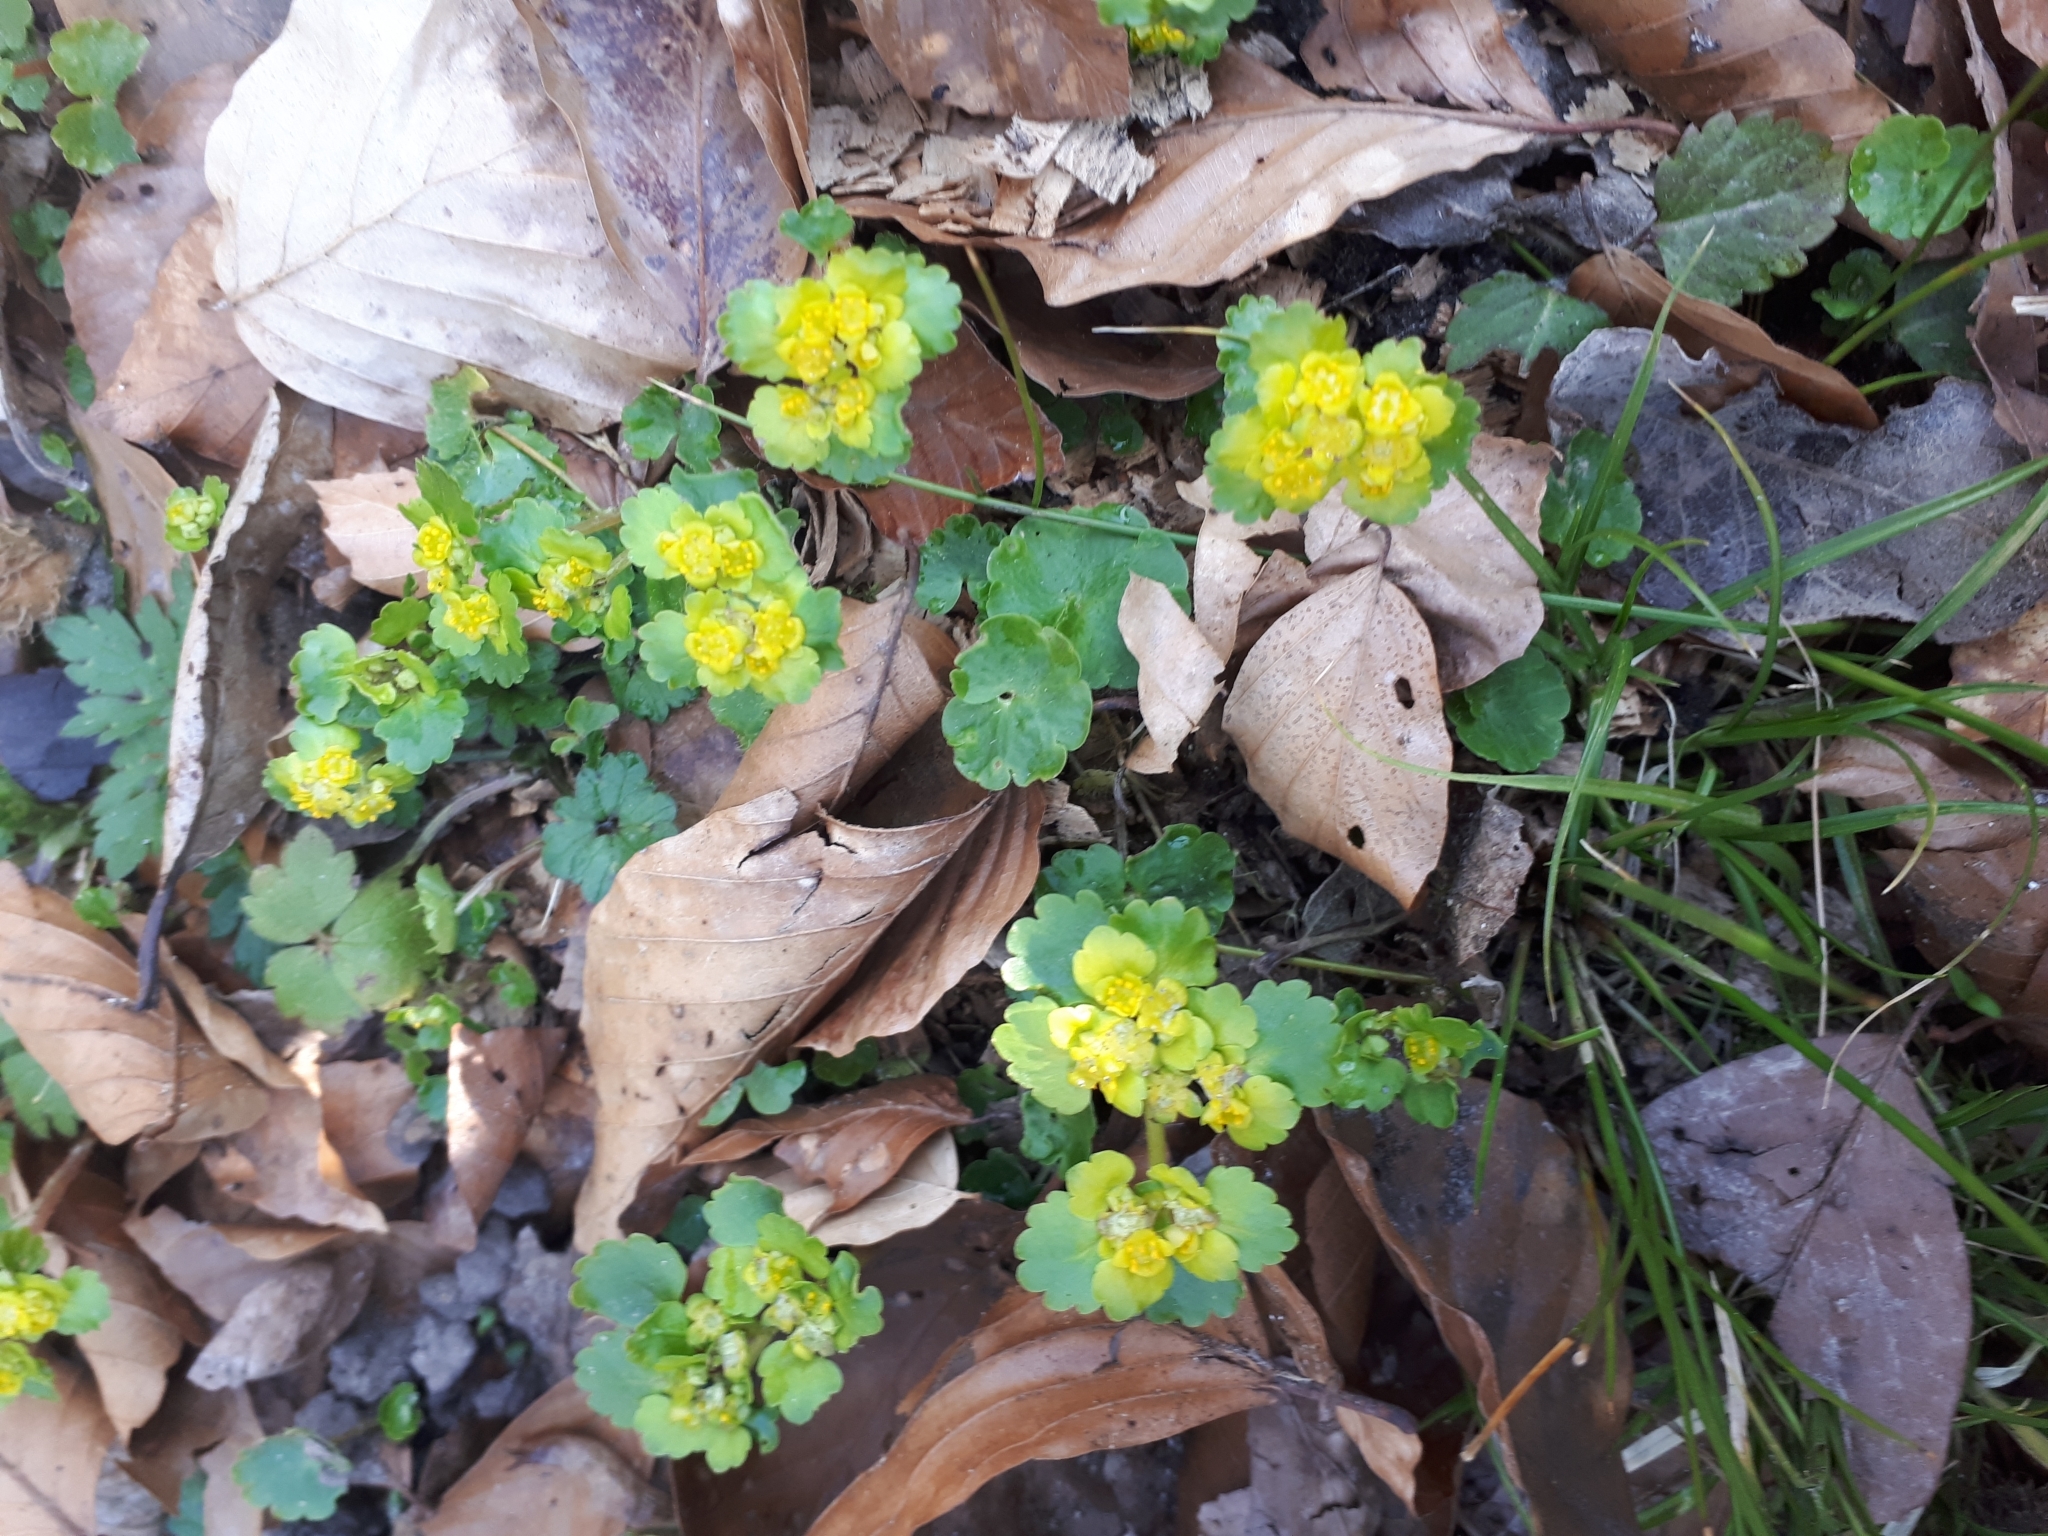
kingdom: Plantae
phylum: Tracheophyta
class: Magnoliopsida
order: Saxifragales
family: Saxifragaceae
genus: Chrysosplenium
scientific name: Chrysosplenium alternifolium
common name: Alternate-leaved golden-saxifrage
